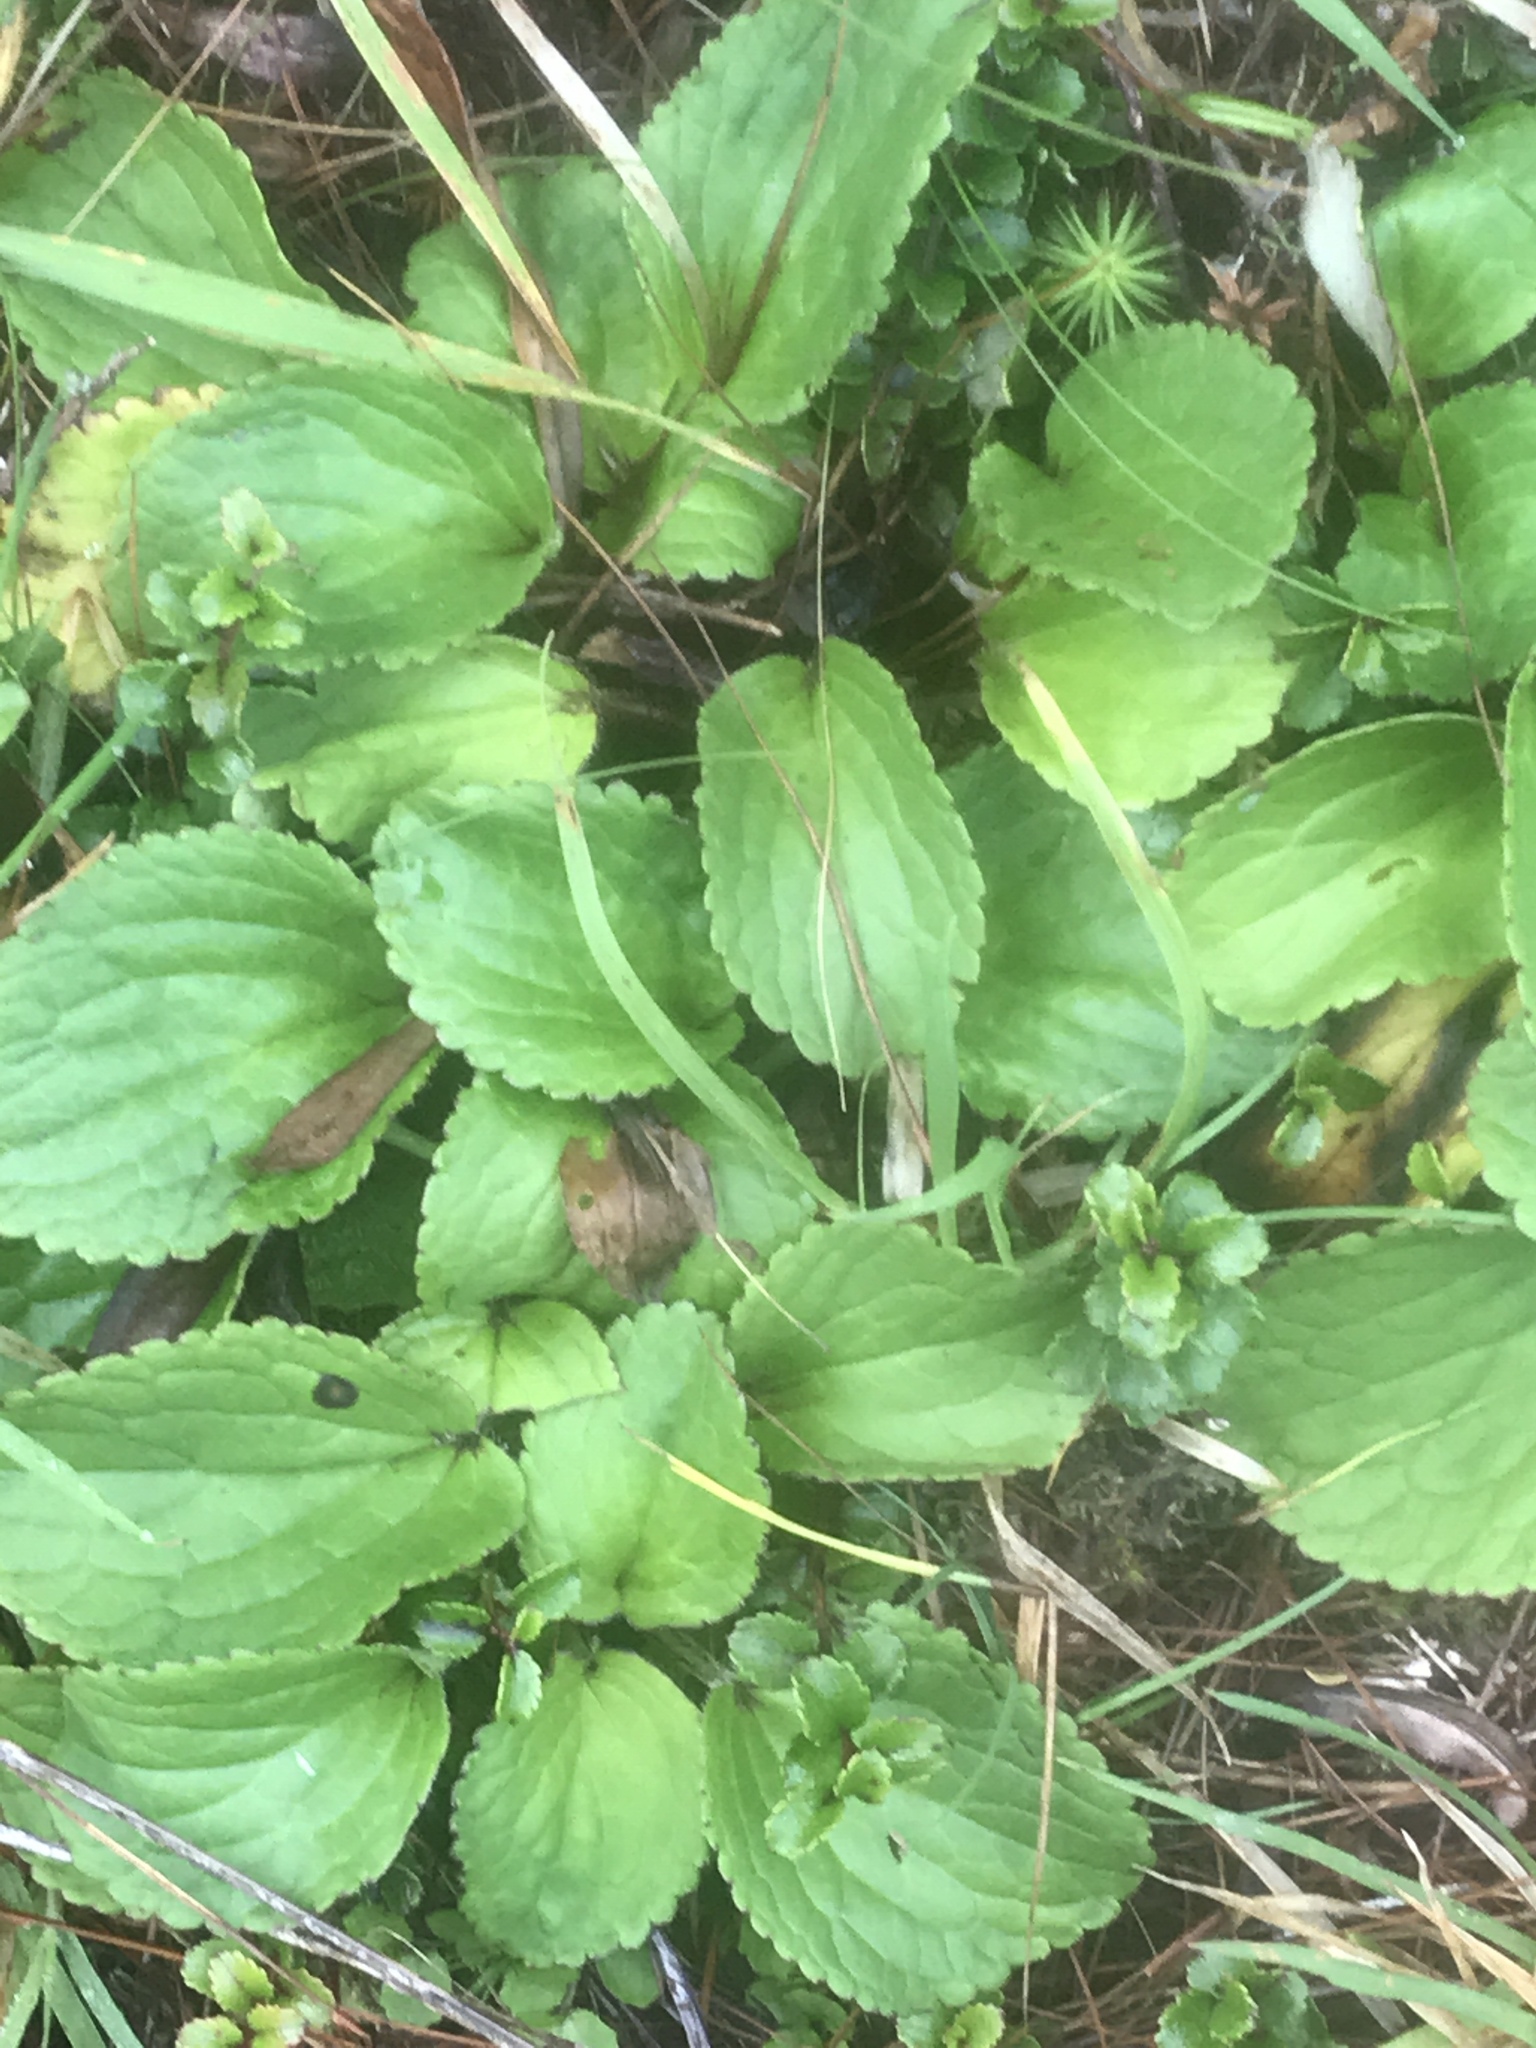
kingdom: Plantae
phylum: Tracheophyta
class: Magnoliopsida
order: Lamiales
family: Plantaginaceae
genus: Ourisia
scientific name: Ourisia macrophylla
